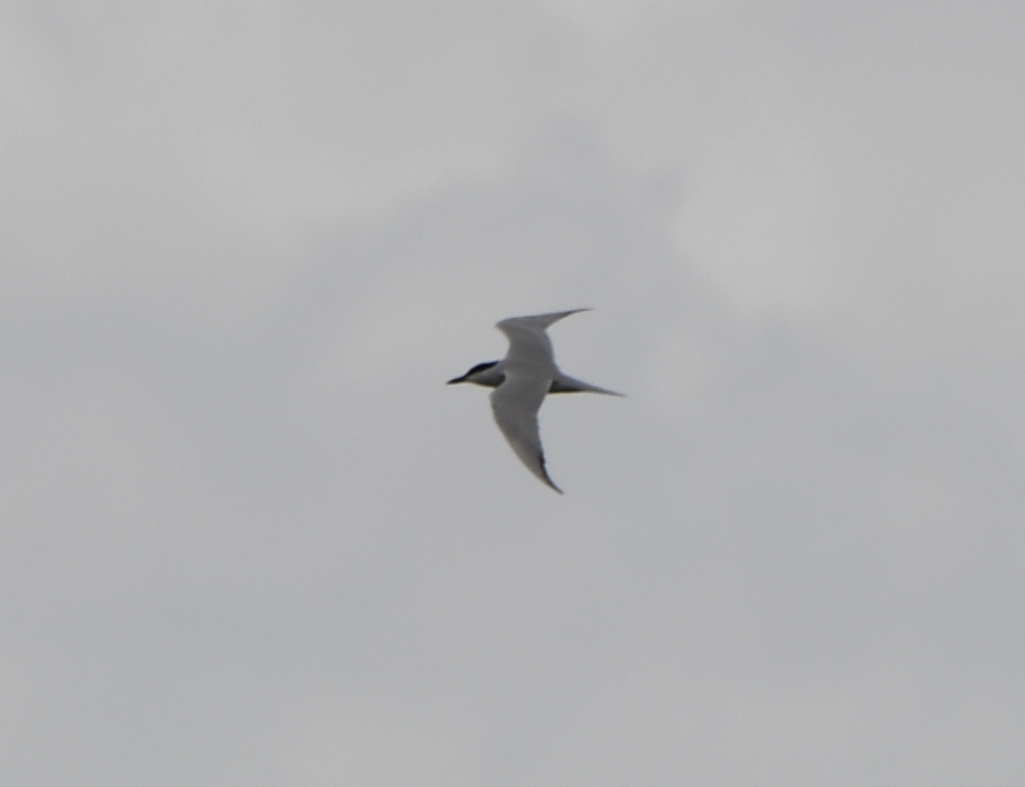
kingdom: Animalia
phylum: Chordata
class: Aves
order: Charadriiformes
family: Laridae
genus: Gelochelidon
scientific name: Gelochelidon nilotica
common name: Gull-billed tern
